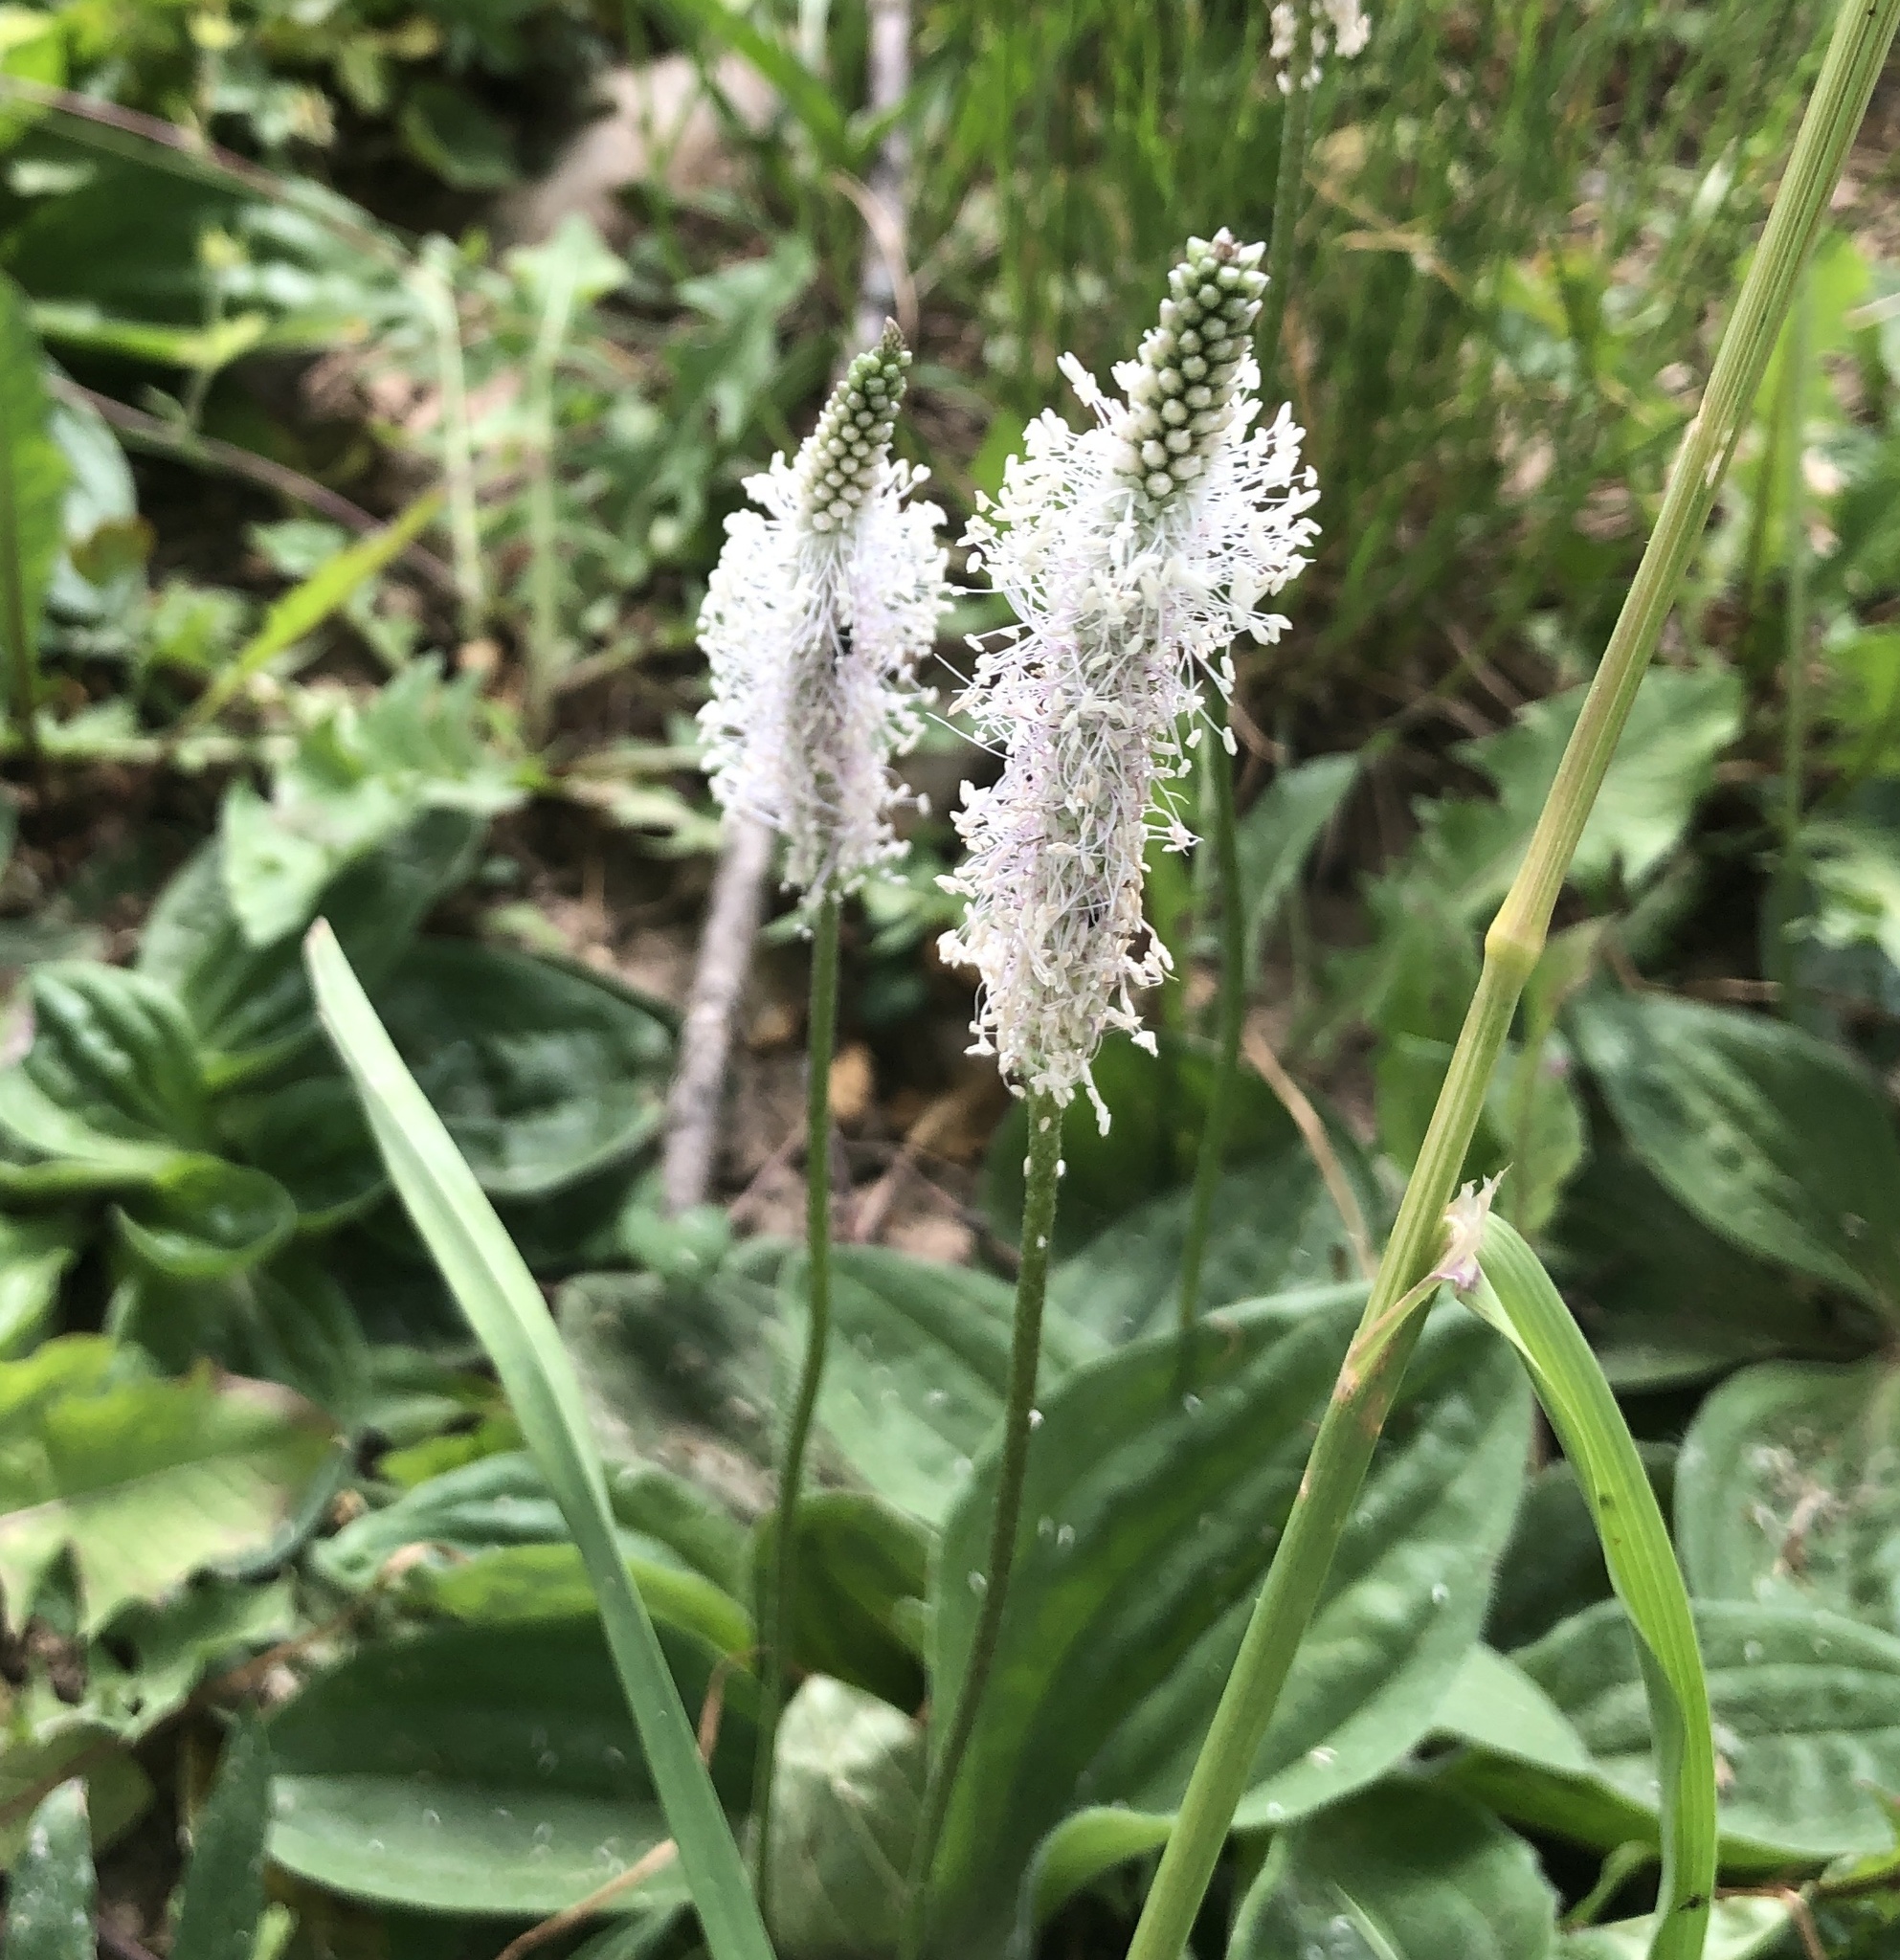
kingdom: Plantae
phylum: Tracheophyta
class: Magnoliopsida
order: Lamiales
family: Plantaginaceae
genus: Plantago
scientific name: Plantago media
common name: Hoary plantain
